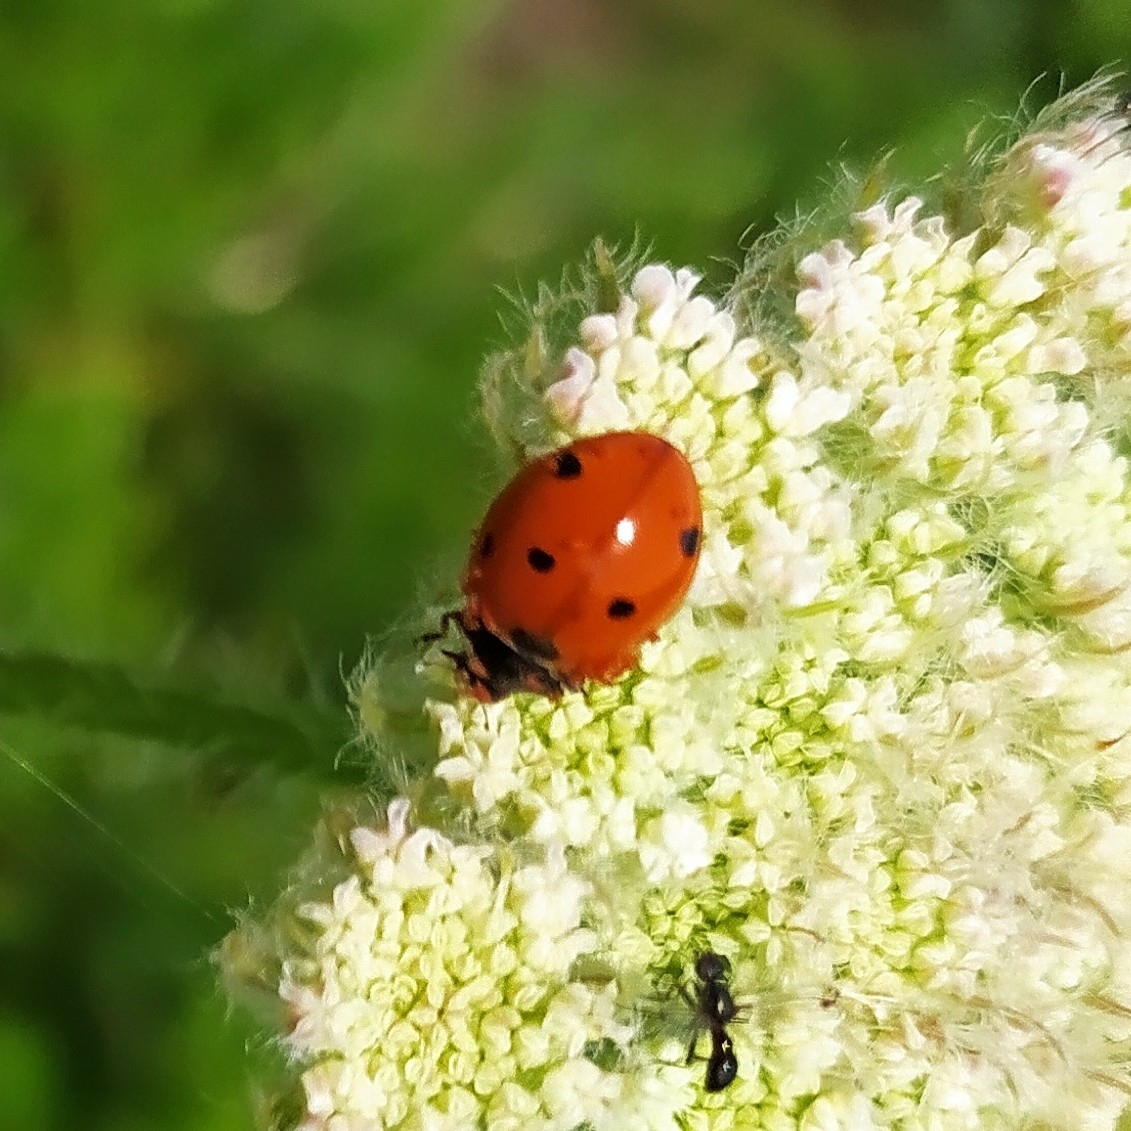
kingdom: Animalia
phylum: Arthropoda
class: Insecta
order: Coleoptera
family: Coccinellidae
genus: Coccinella
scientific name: Coccinella septempunctata
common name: Sevenspotted lady beetle
